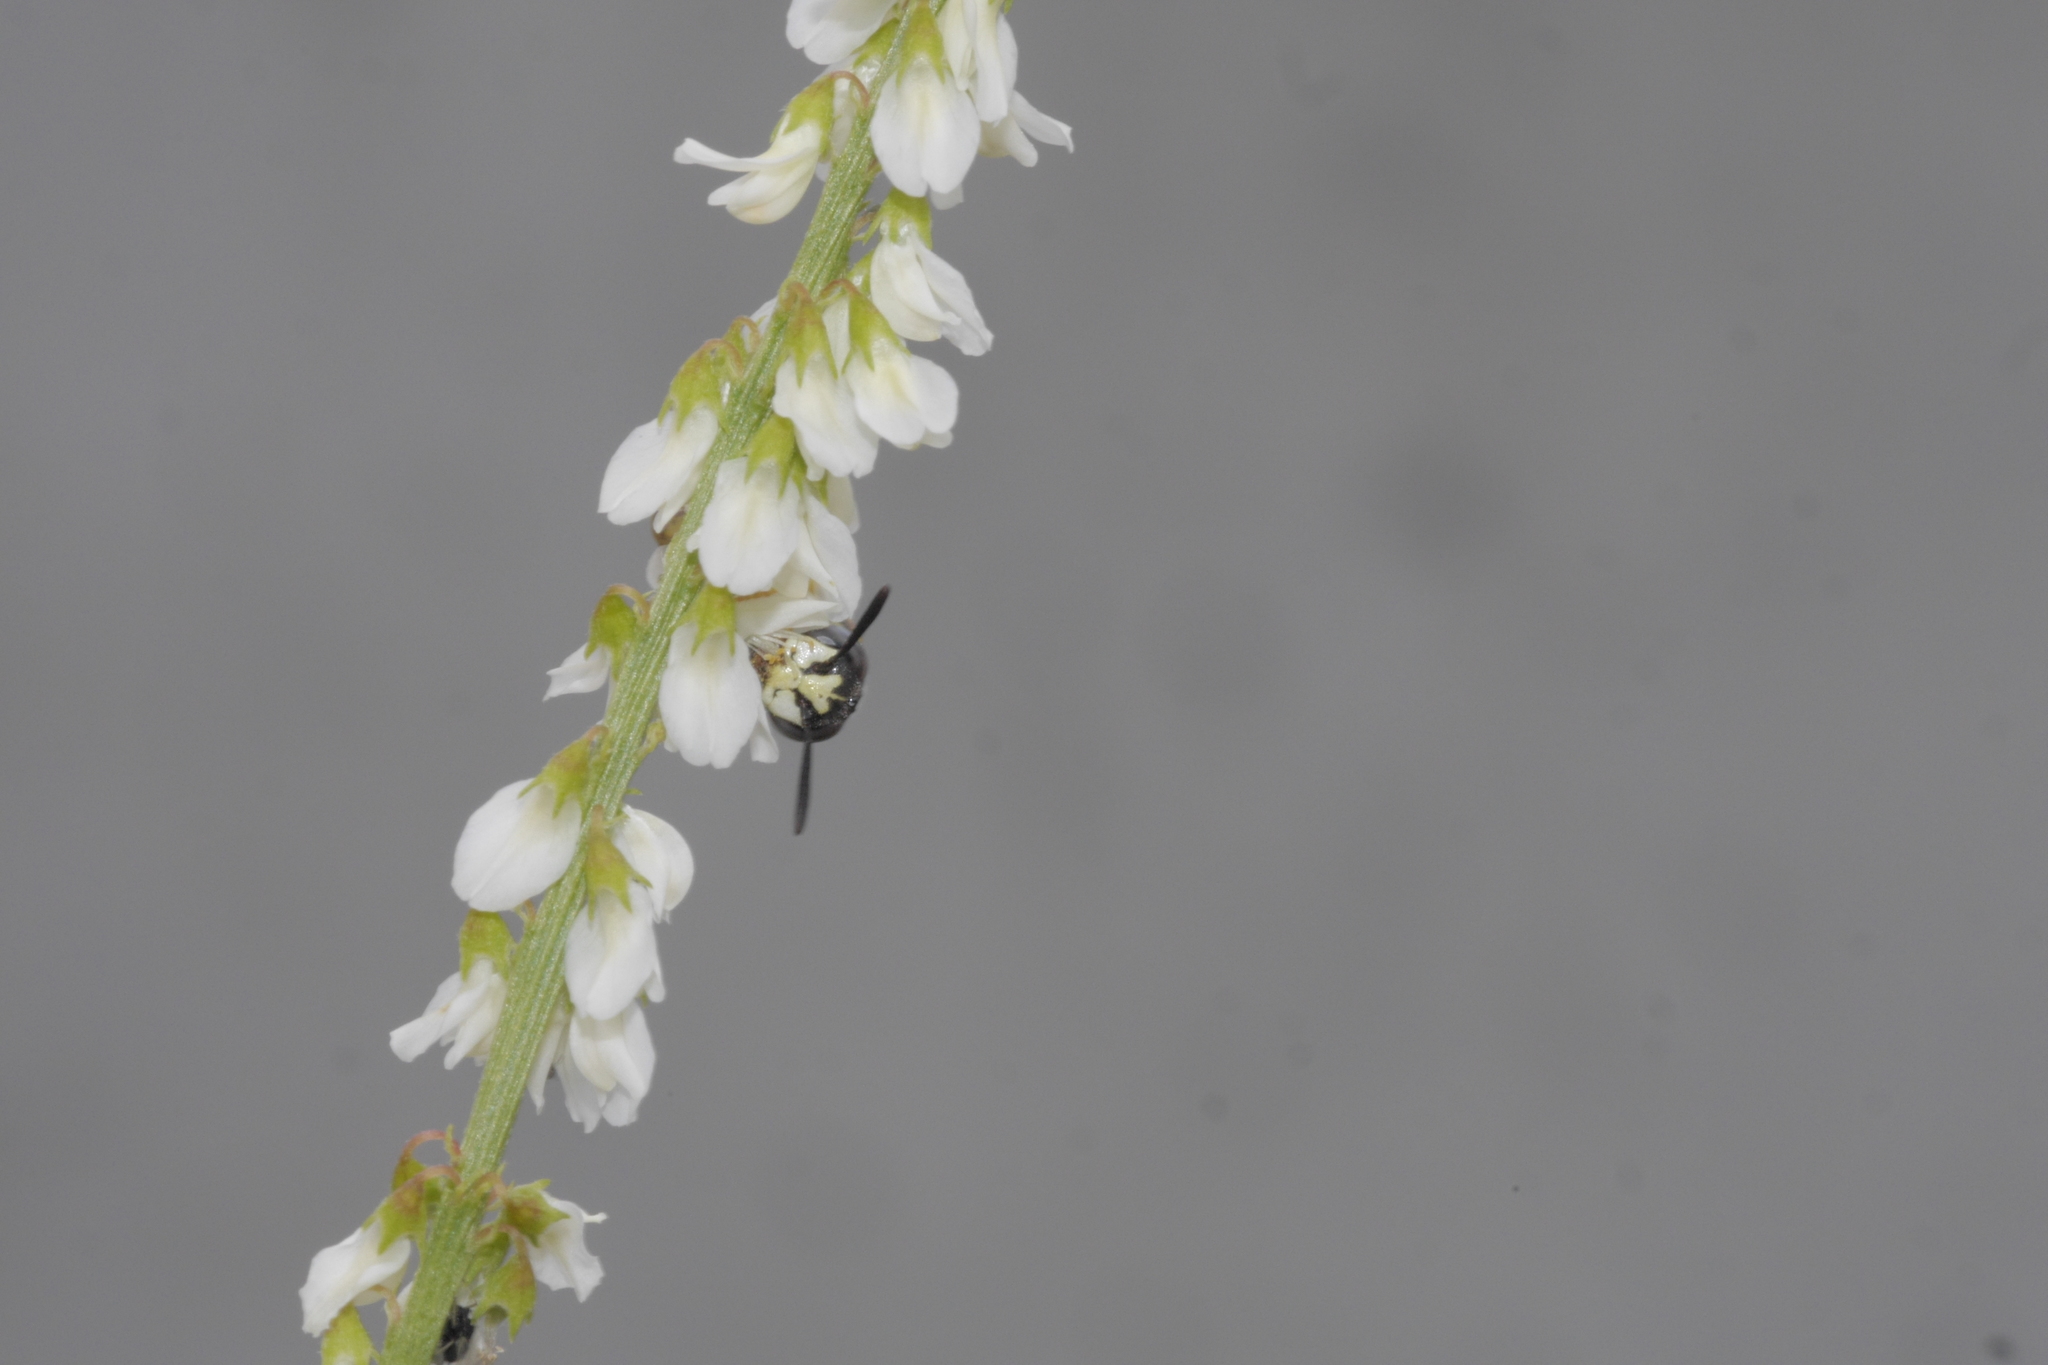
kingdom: Animalia
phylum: Arthropoda
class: Insecta
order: Hymenoptera
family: Crabronidae
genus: Philanthus
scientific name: Philanthus triangulum
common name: Bee wolf
